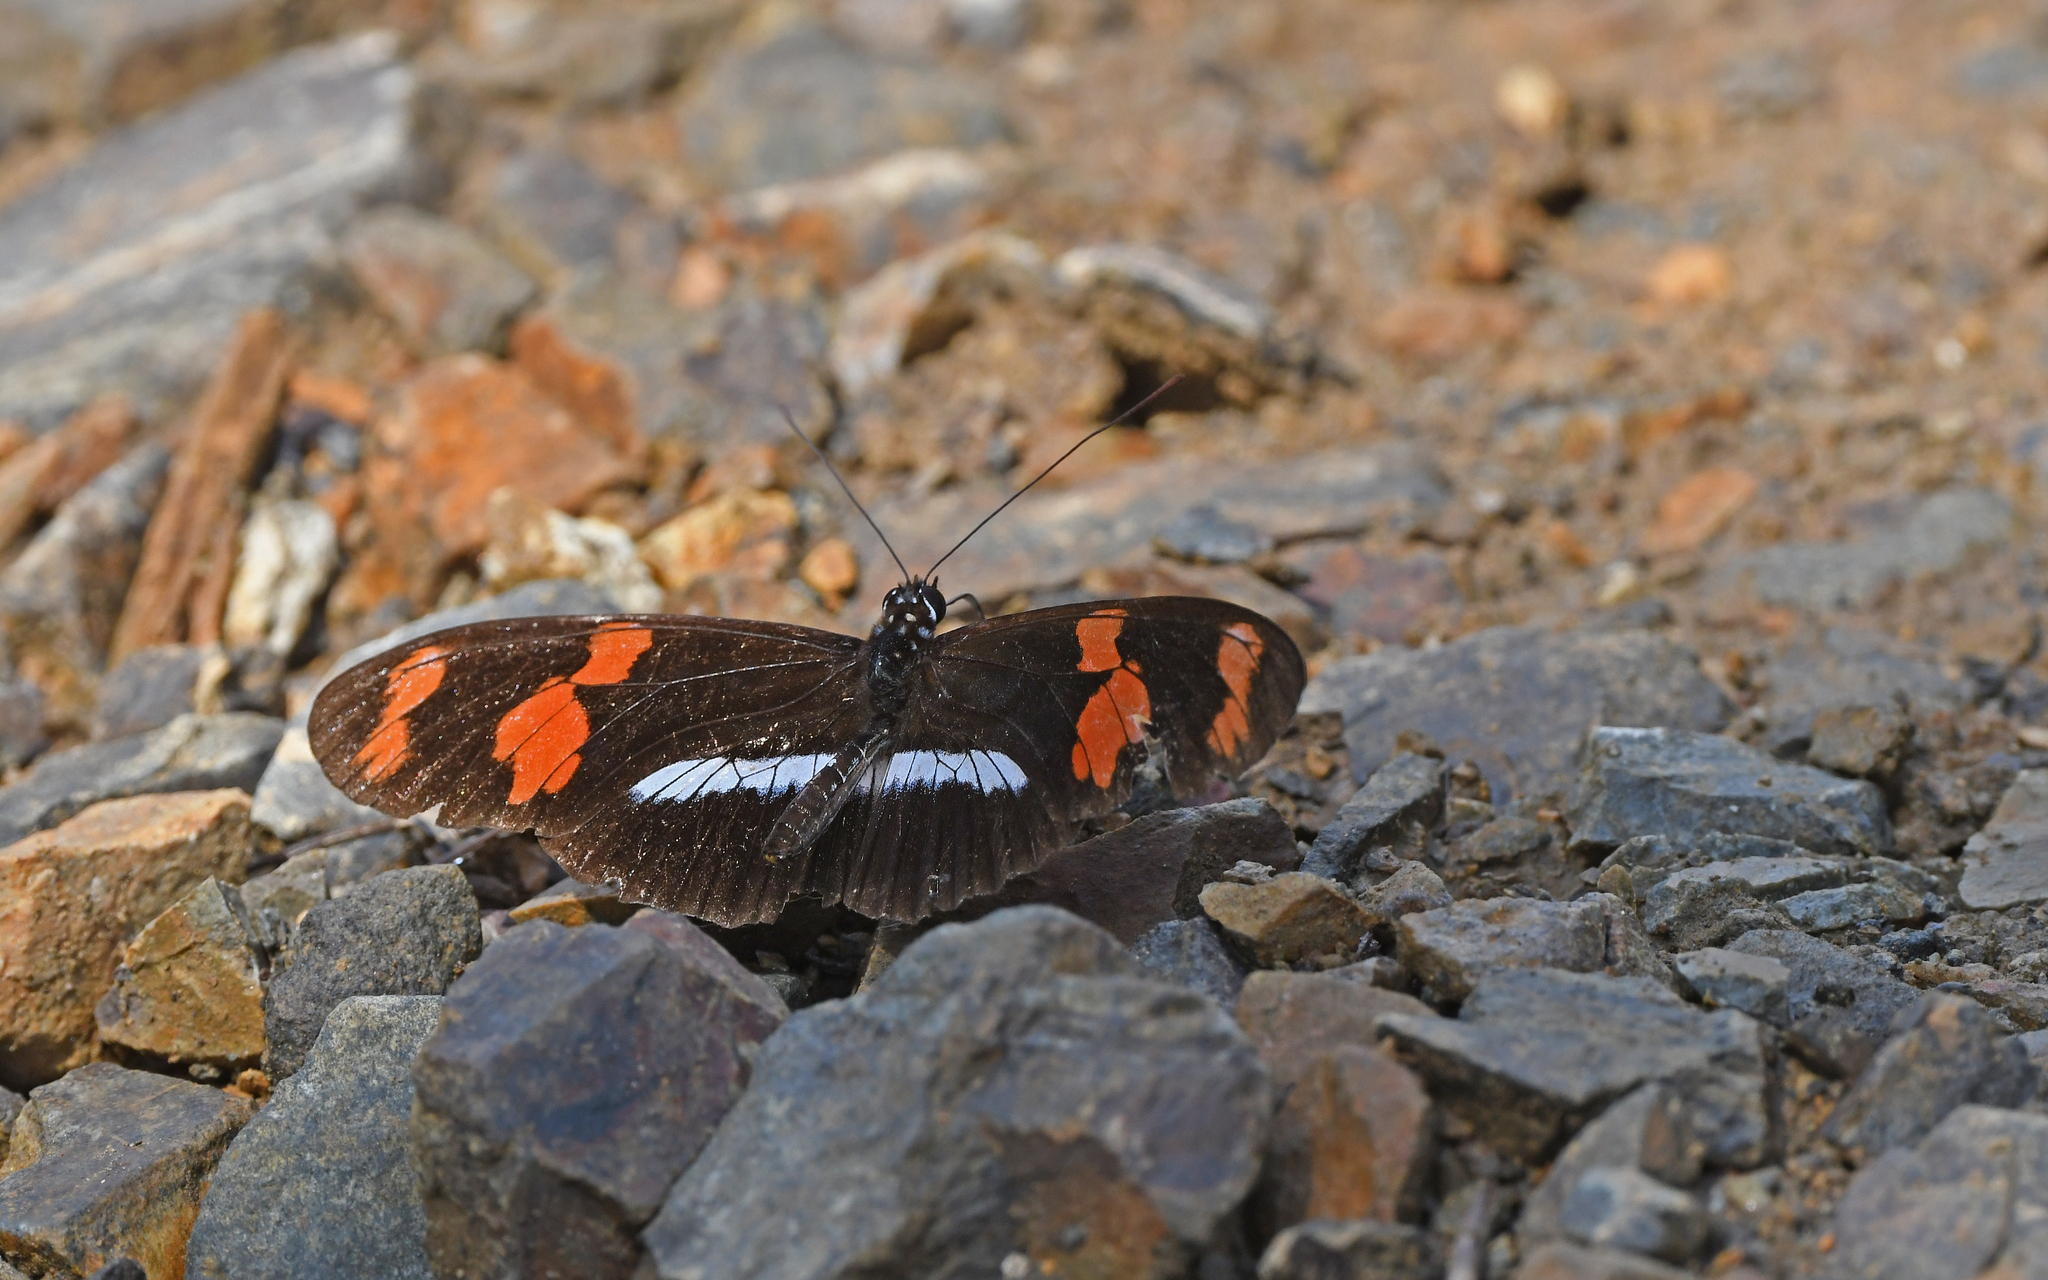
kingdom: Animalia
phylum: Arthropoda
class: Insecta
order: Lepidoptera
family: Nymphalidae
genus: Heliconius
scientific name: Heliconius telesiphe
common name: Telesiphe longwing
